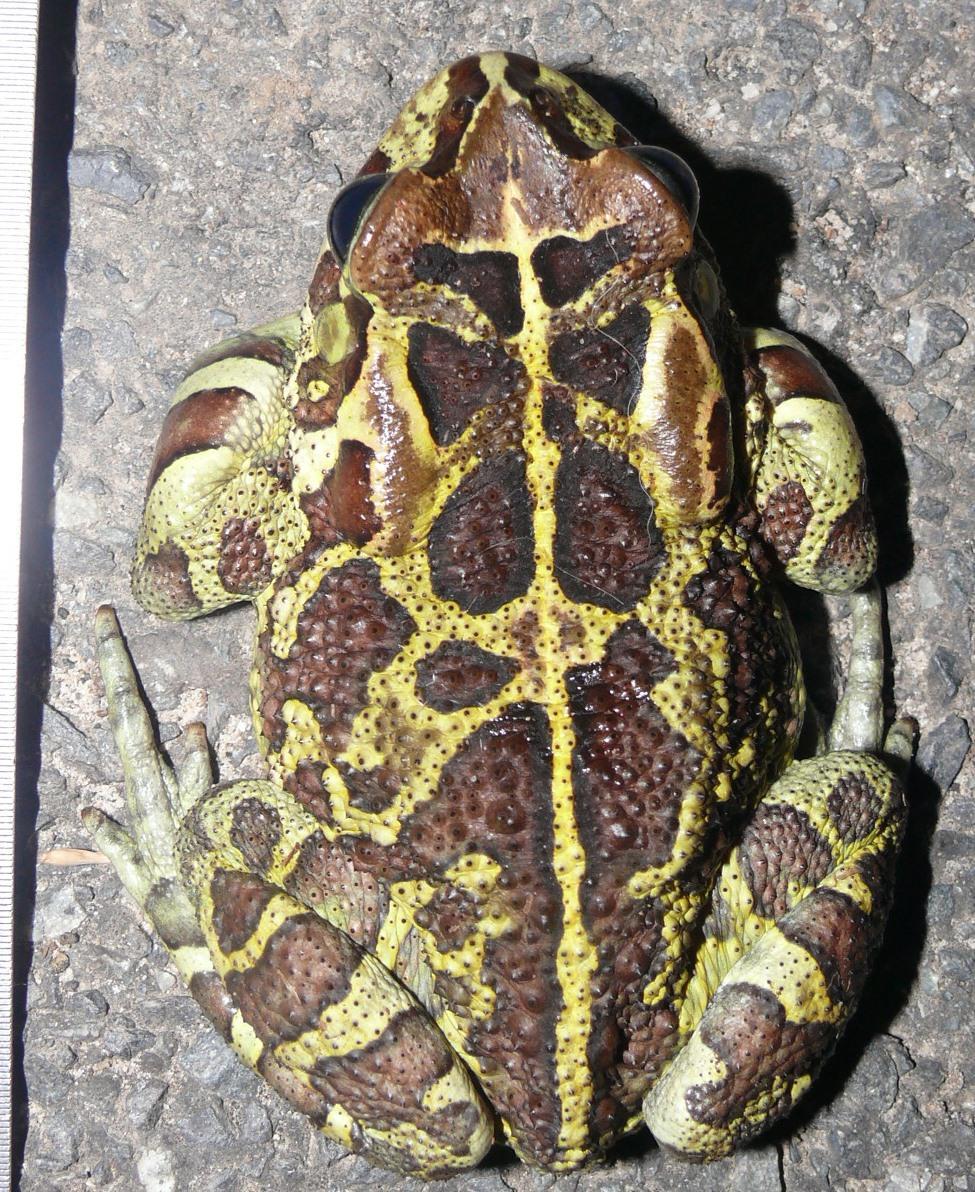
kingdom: Animalia
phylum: Chordata
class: Amphibia
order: Anura
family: Bufonidae
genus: Sclerophrys
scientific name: Sclerophrys pantherina
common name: Panther toad
